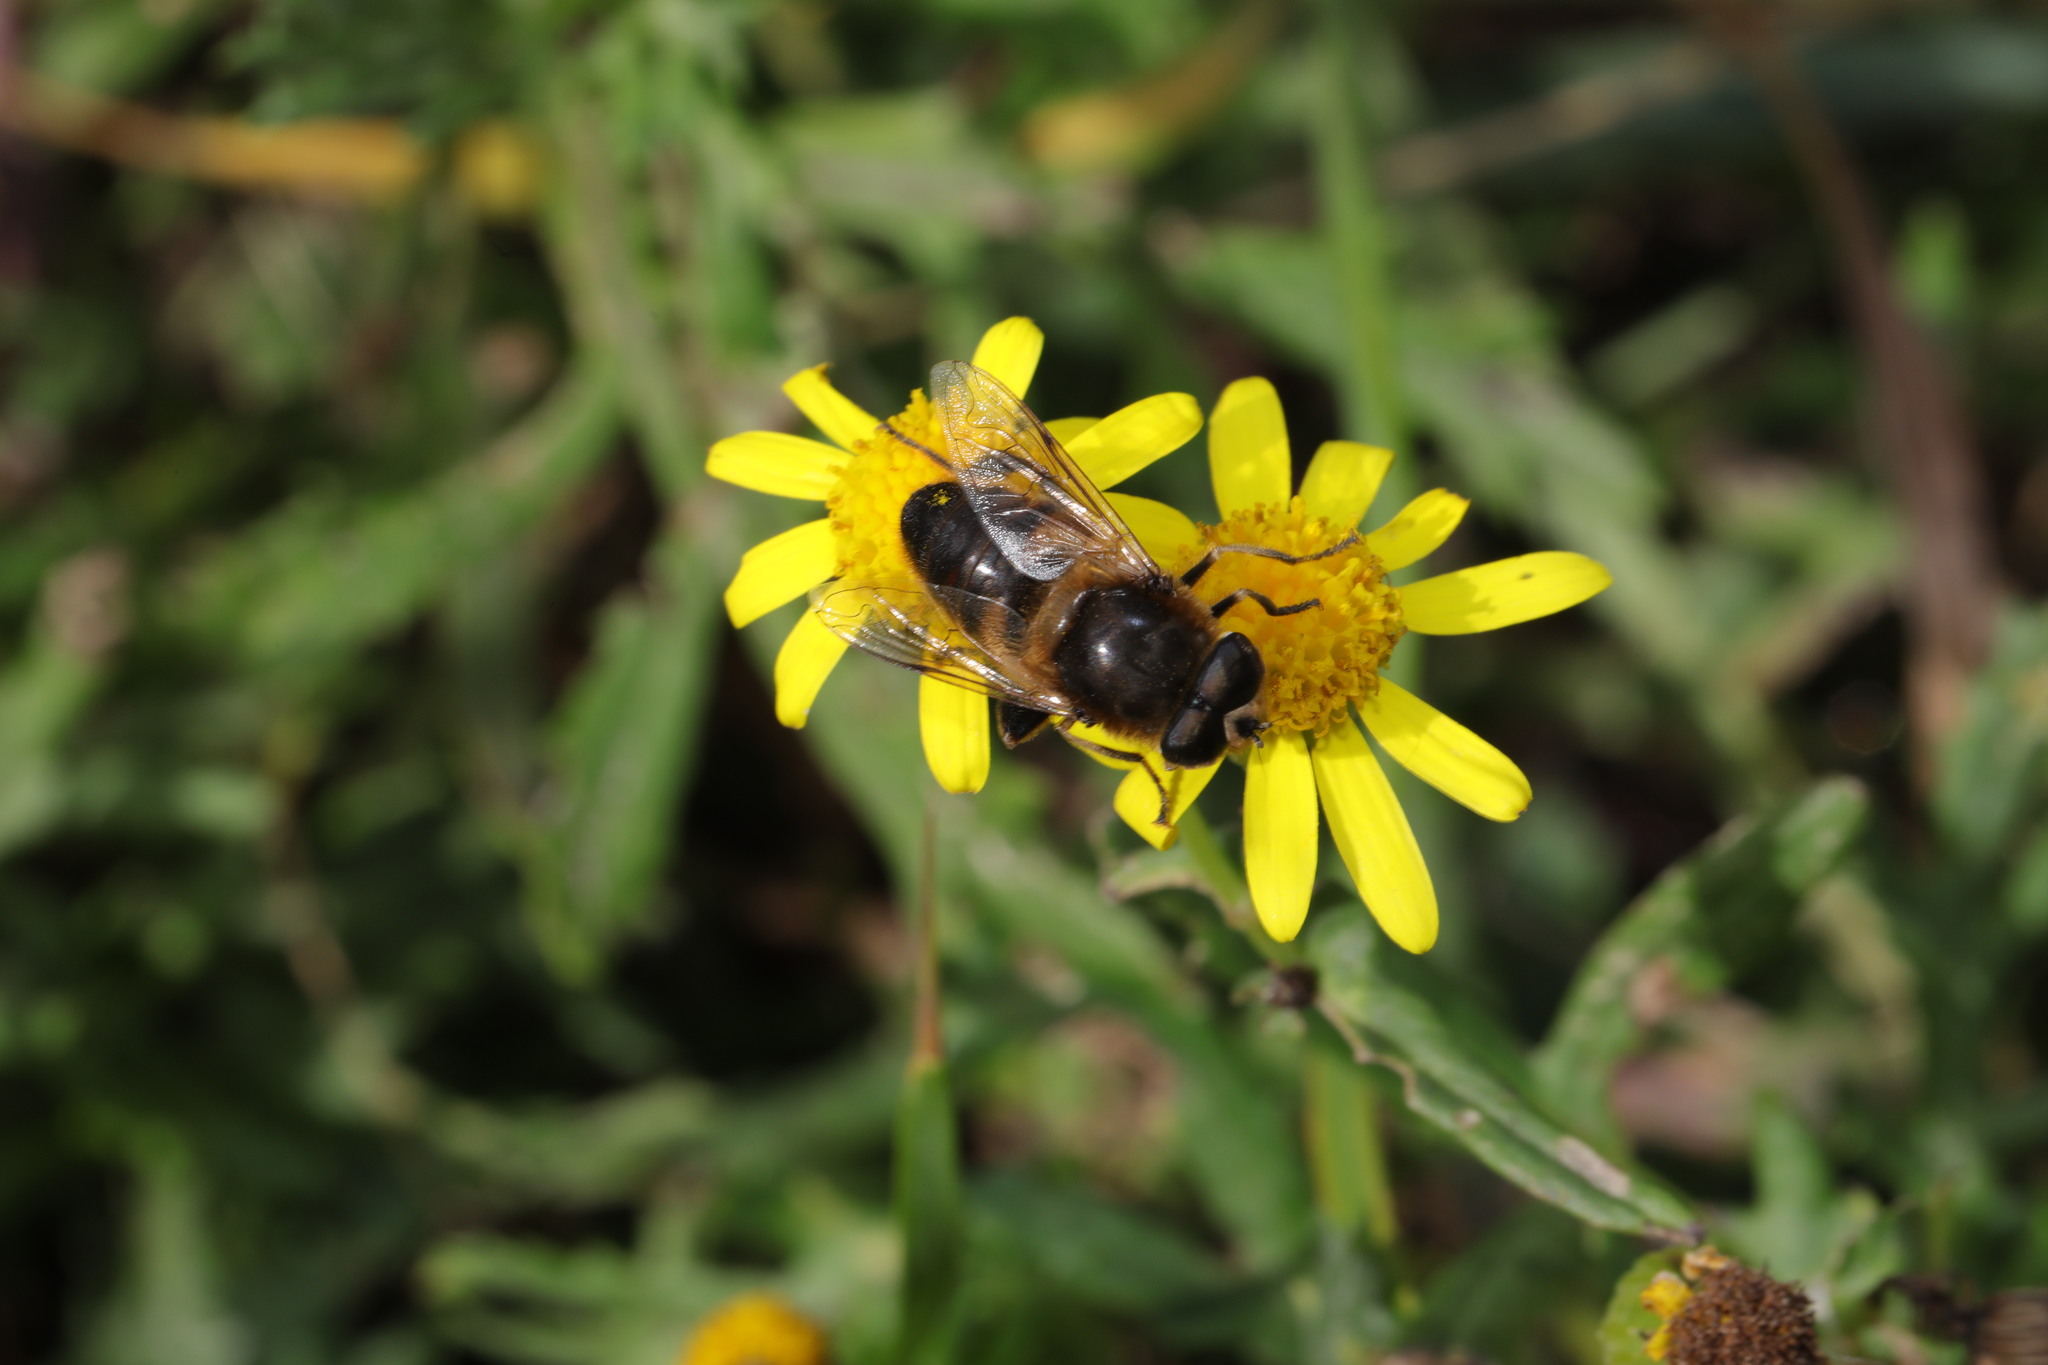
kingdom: Animalia
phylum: Arthropoda
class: Insecta
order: Diptera
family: Syrphidae
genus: Eristalis
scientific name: Eristalis tenax
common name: Drone fly
